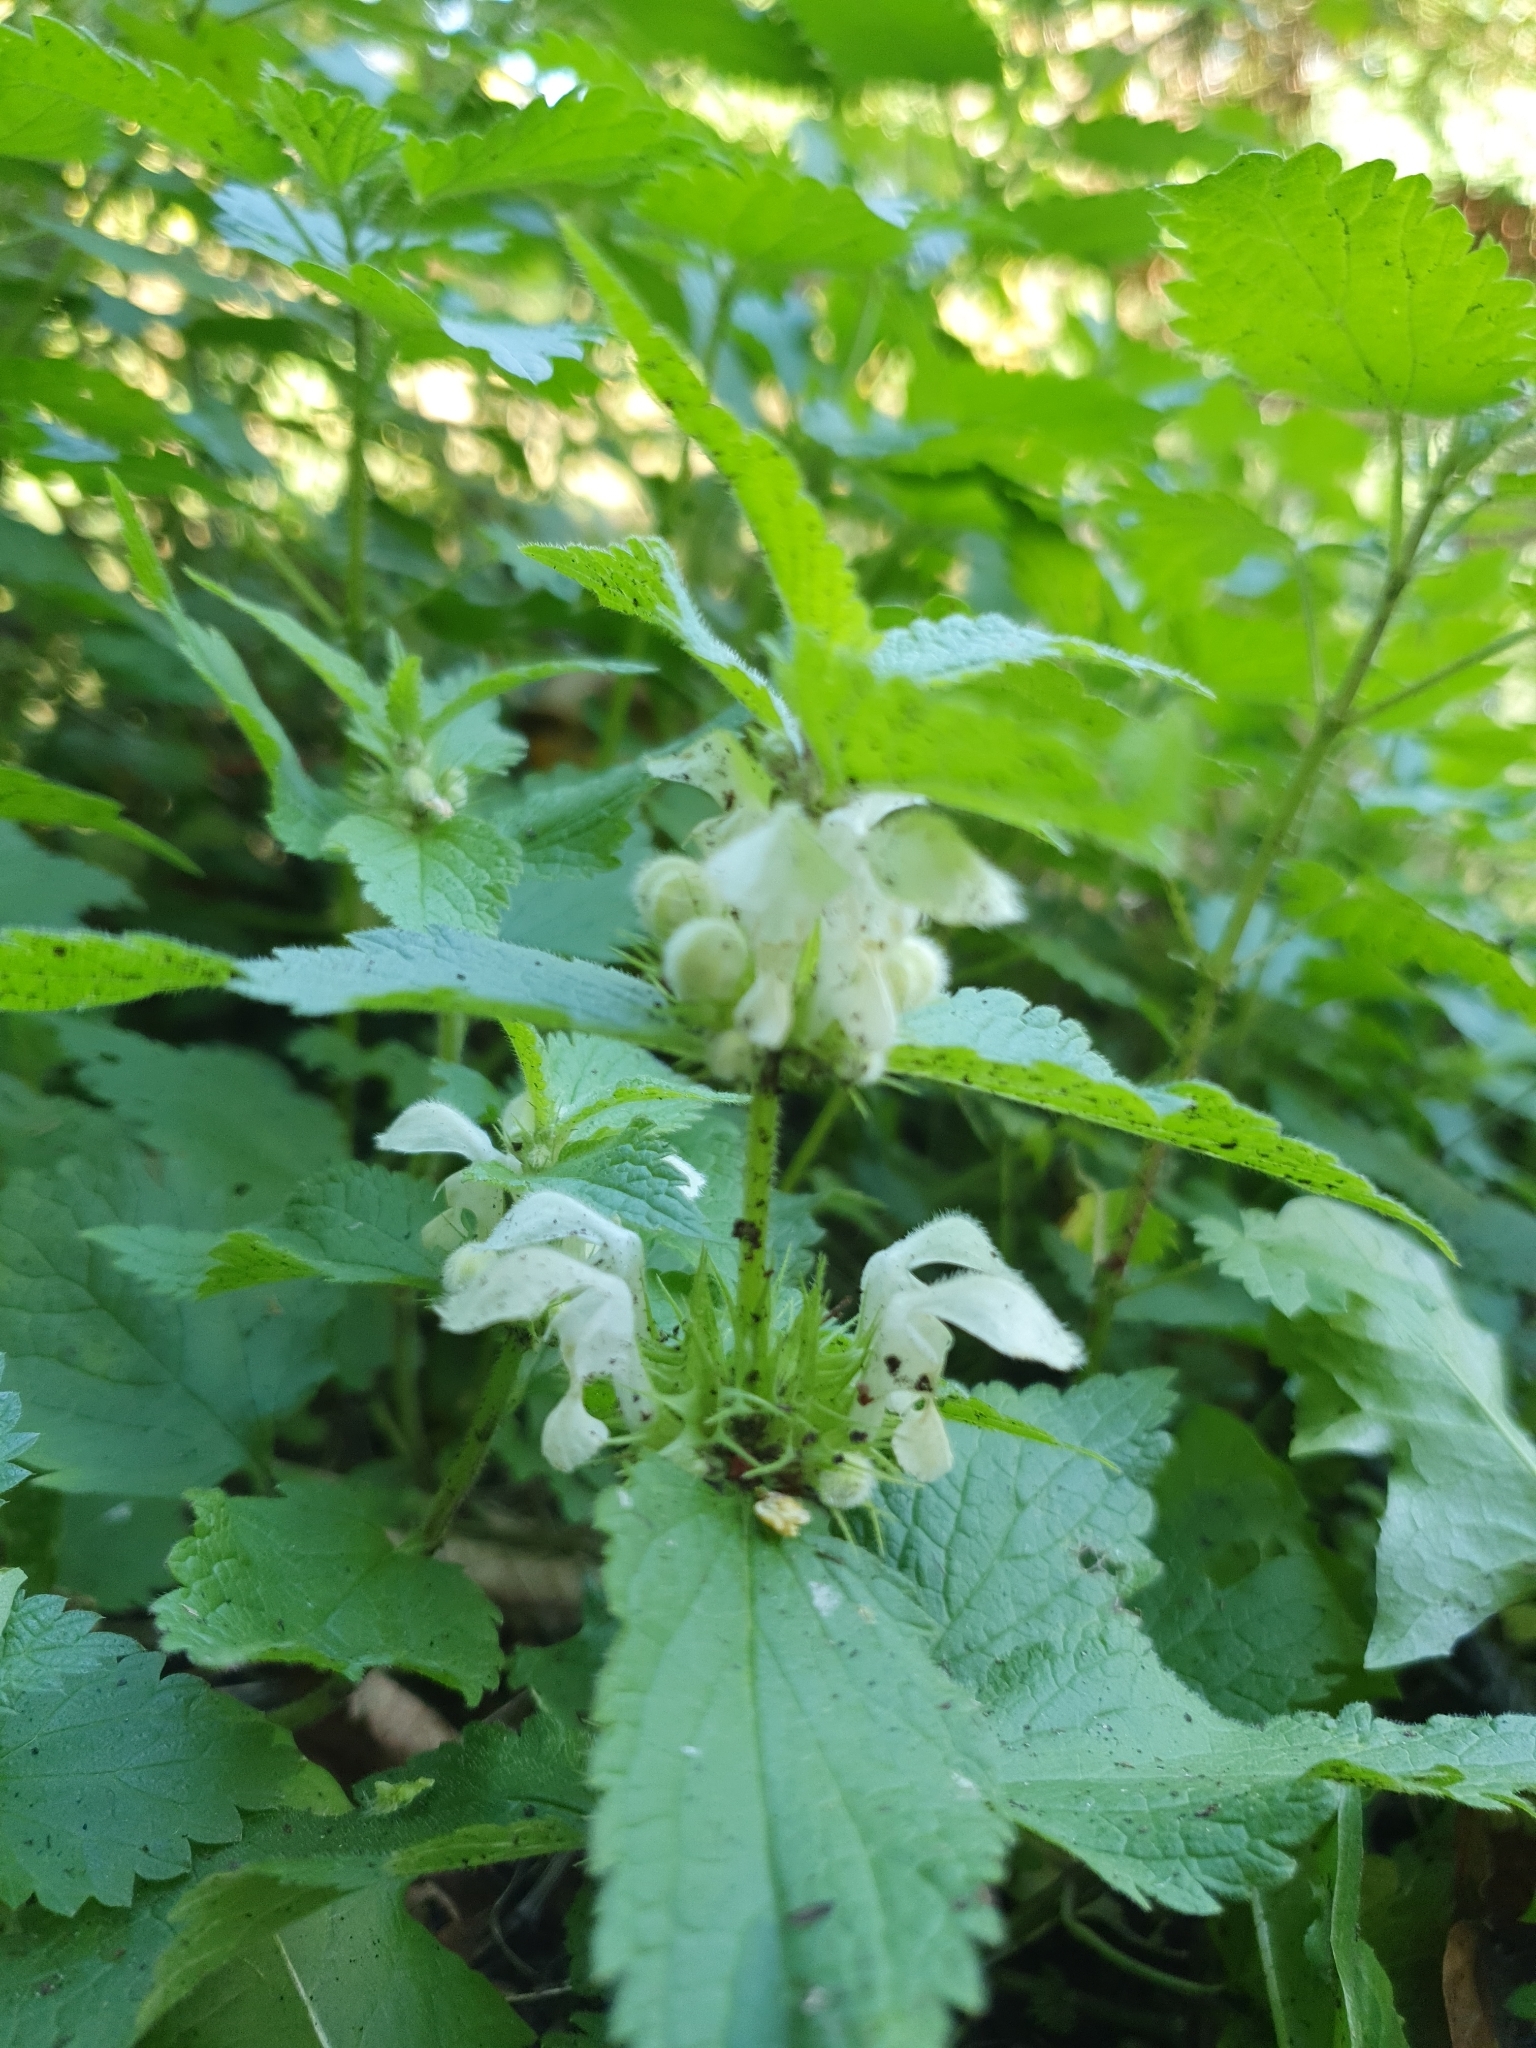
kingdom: Plantae
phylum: Tracheophyta
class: Magnoliopsida
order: Lamiales
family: Lamiaceae
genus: Lamium
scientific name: Lamium album
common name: White dead-nettle
